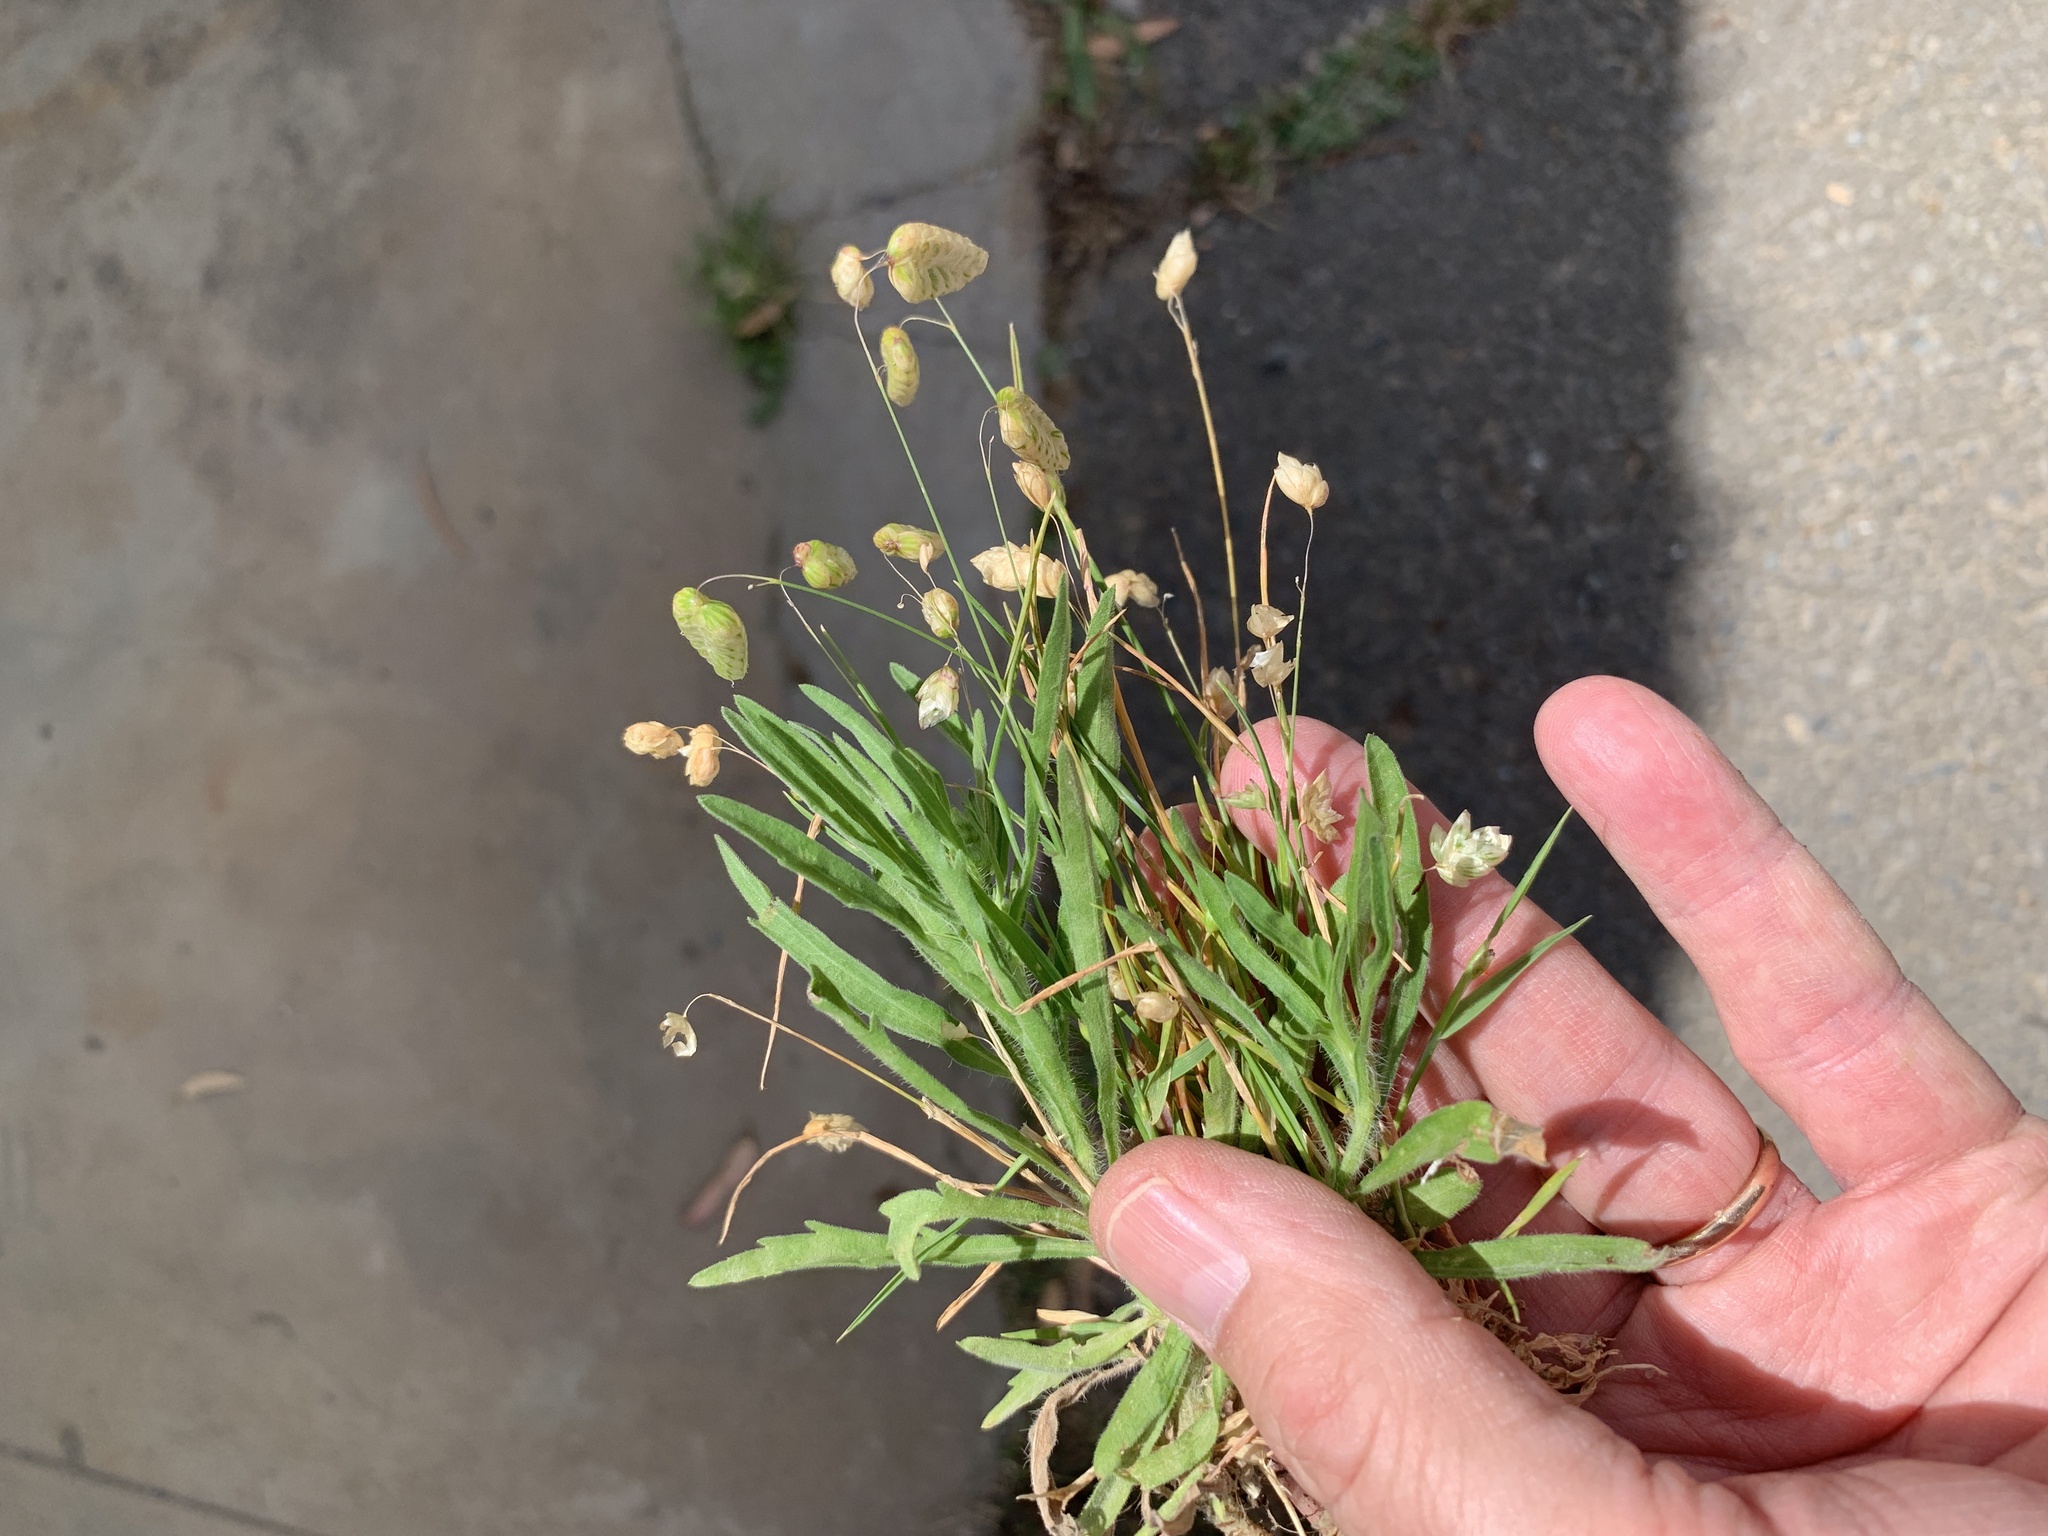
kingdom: Plantae
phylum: Tracheophyta
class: Liliopsida
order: Poales
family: Poaceae
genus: Briza
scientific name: Briza maxima
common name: Big quakinggrass
